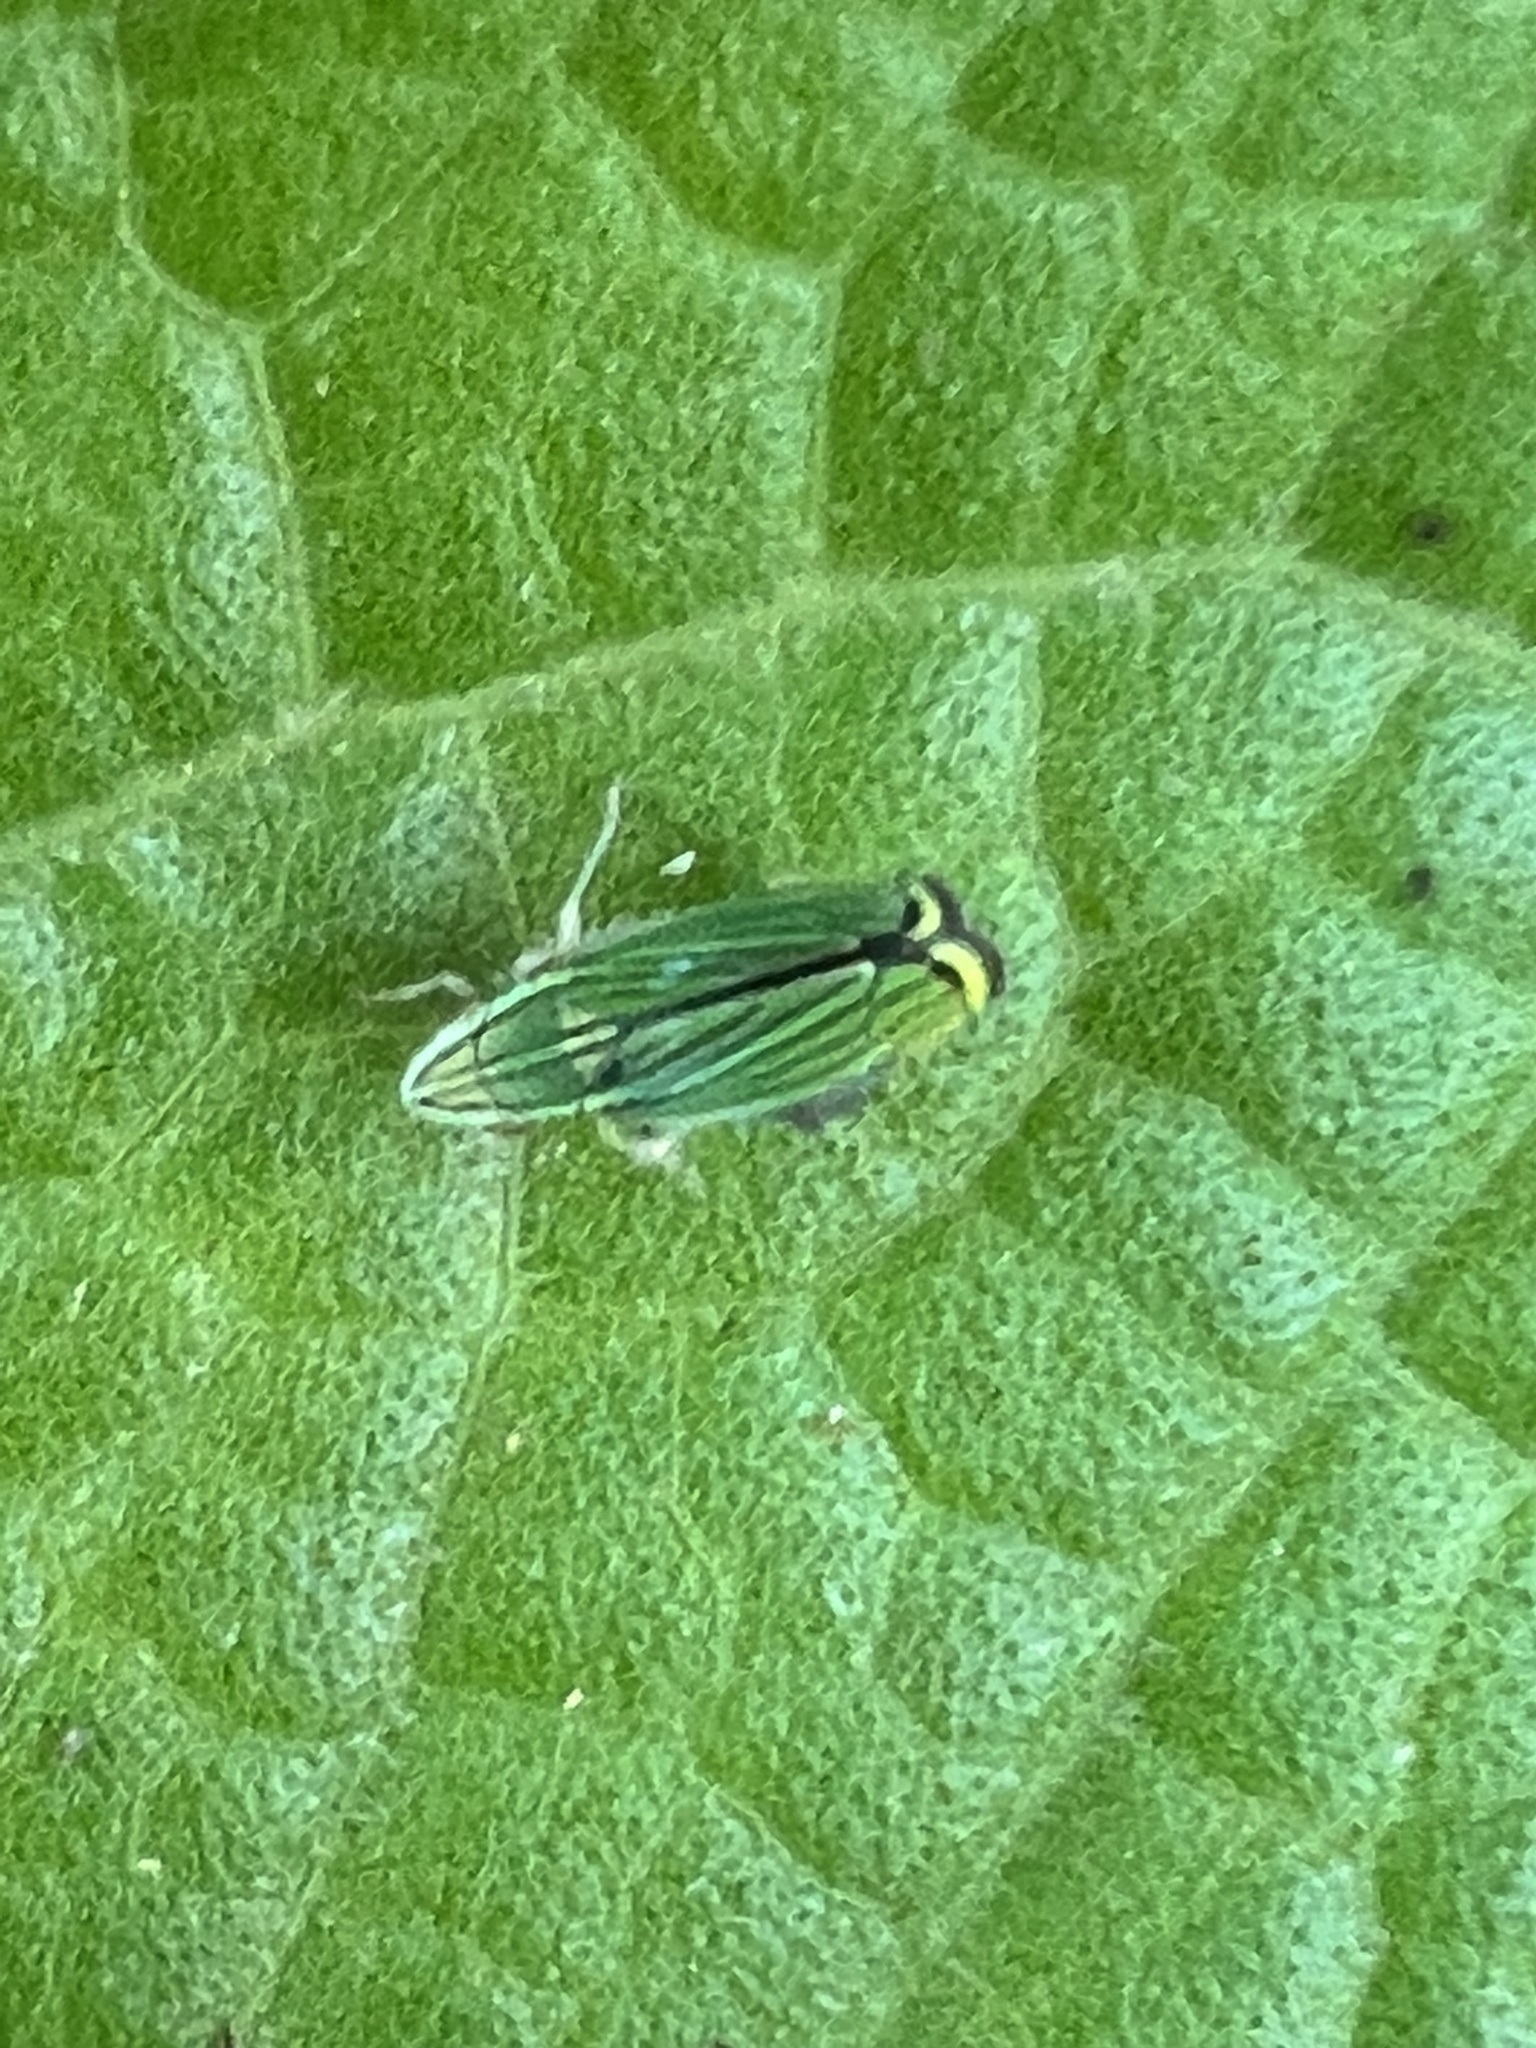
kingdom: Animalia
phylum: Arthropoda
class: Insecta
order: Hemiptera
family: Cicadellidae
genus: Isogonalia
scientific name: Isogonalia sexlineata
